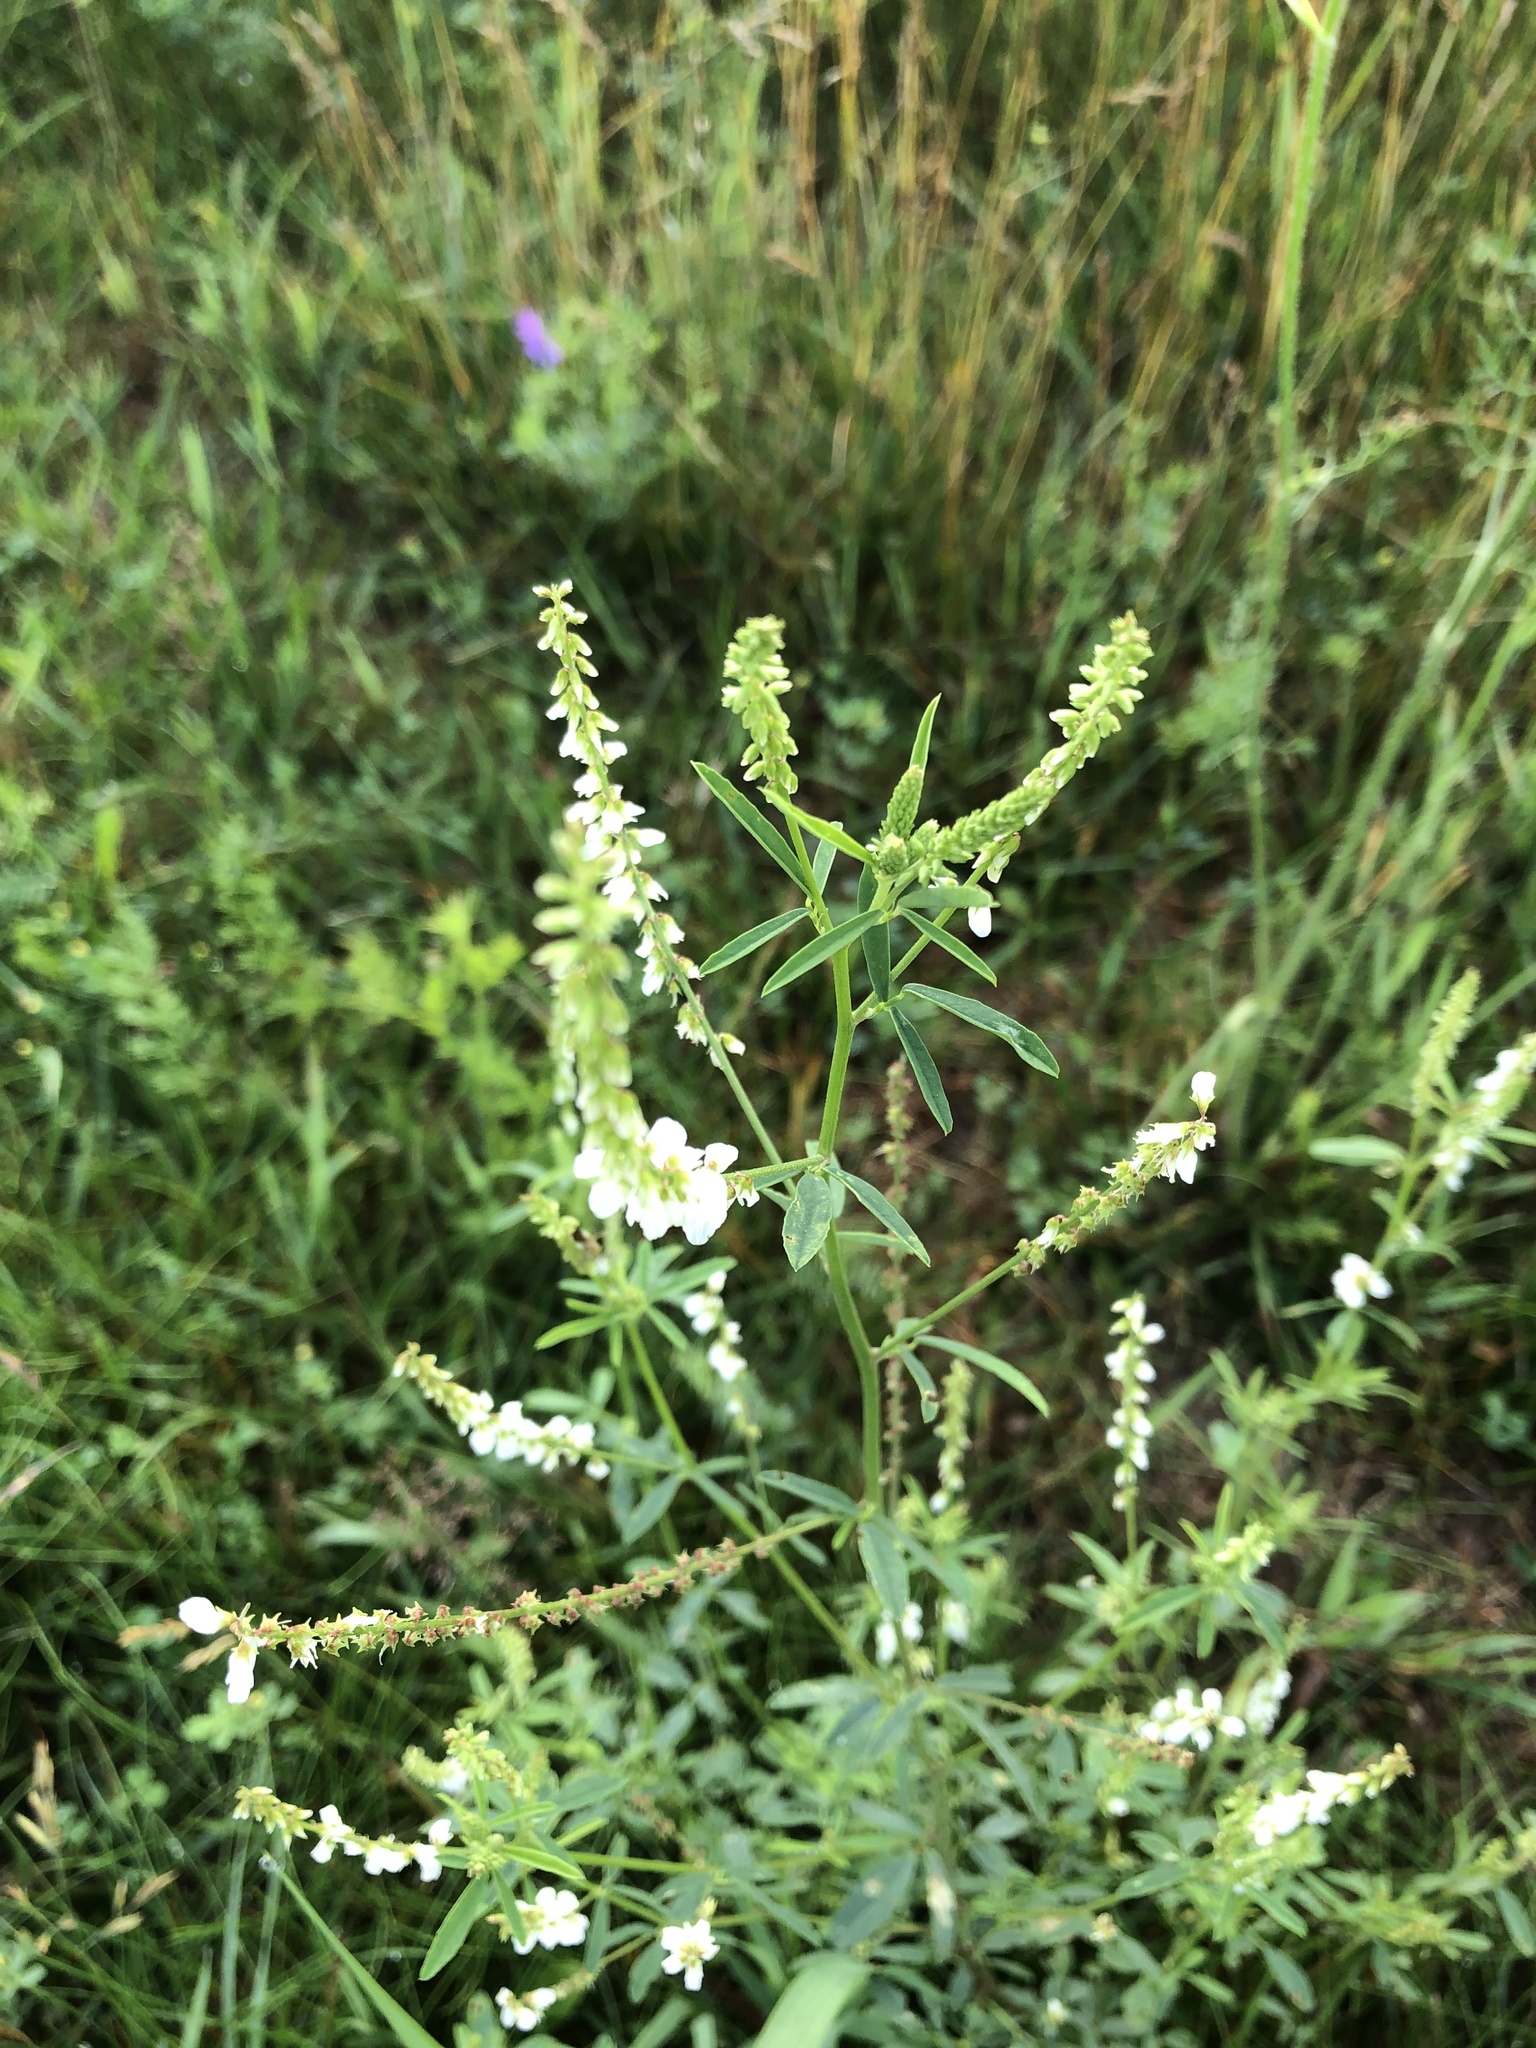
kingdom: Plantae
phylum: Tracheophyta
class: Magnoliopsida
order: Fabales
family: Fabaceae
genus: Melilotus
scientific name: Melilotus albus
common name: White melilot
